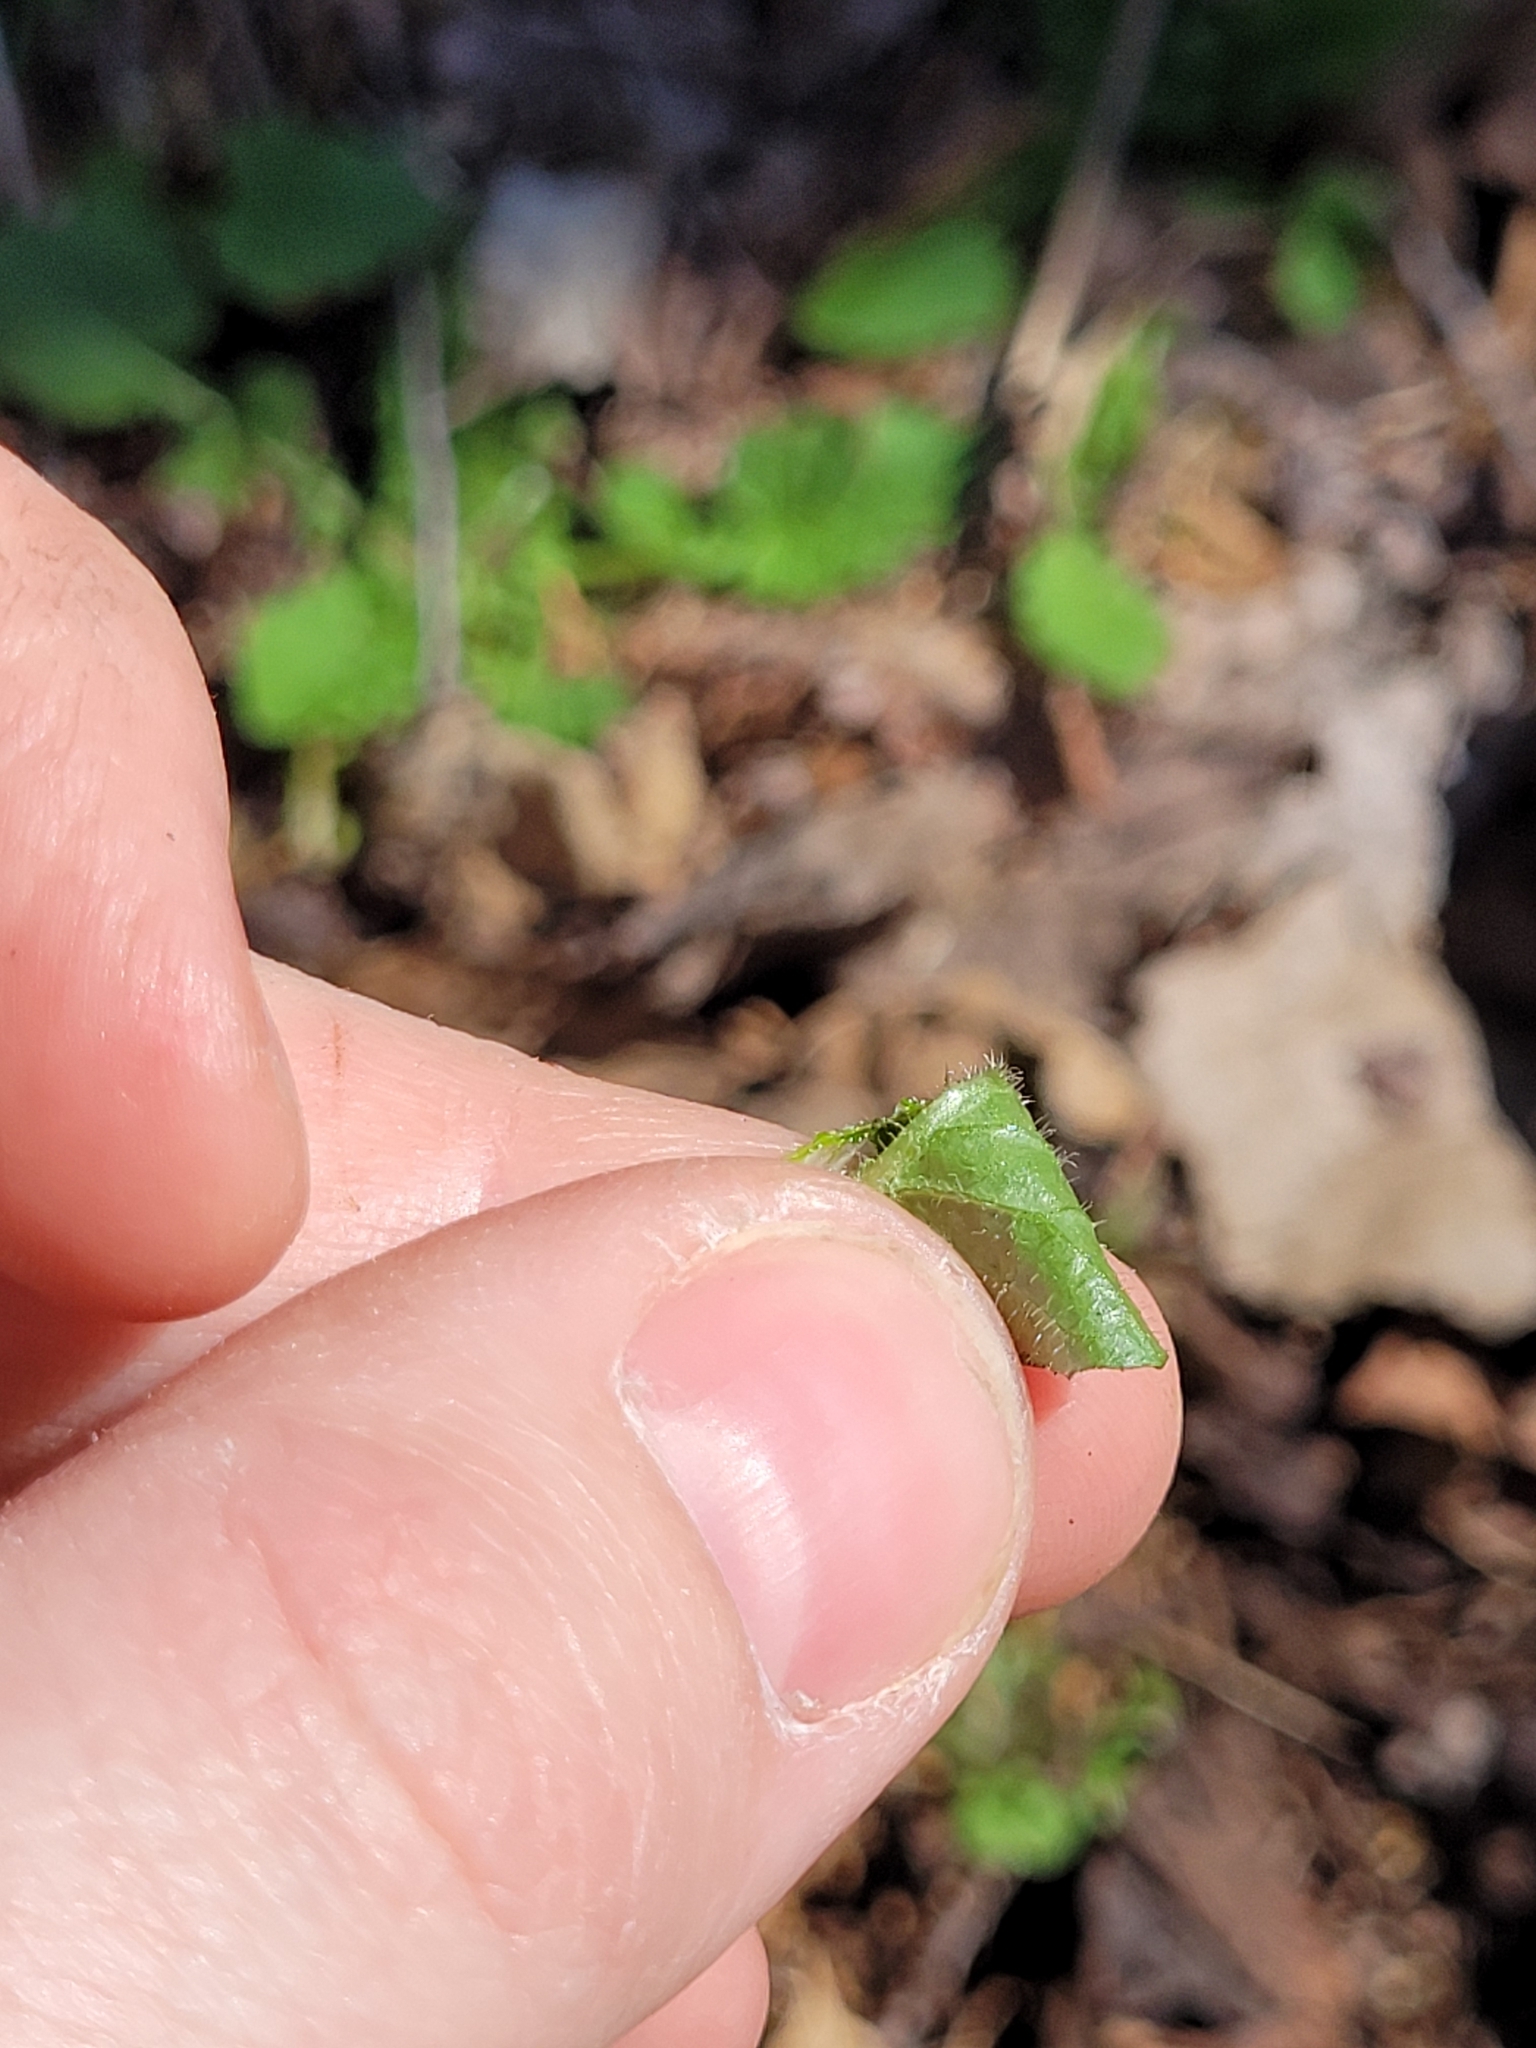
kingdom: Plantae
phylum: Tracheophyta
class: Magnoliopsida
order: Asterales
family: Asteraceae
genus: Lapsana
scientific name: Lapsana communis
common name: Nipplewort
